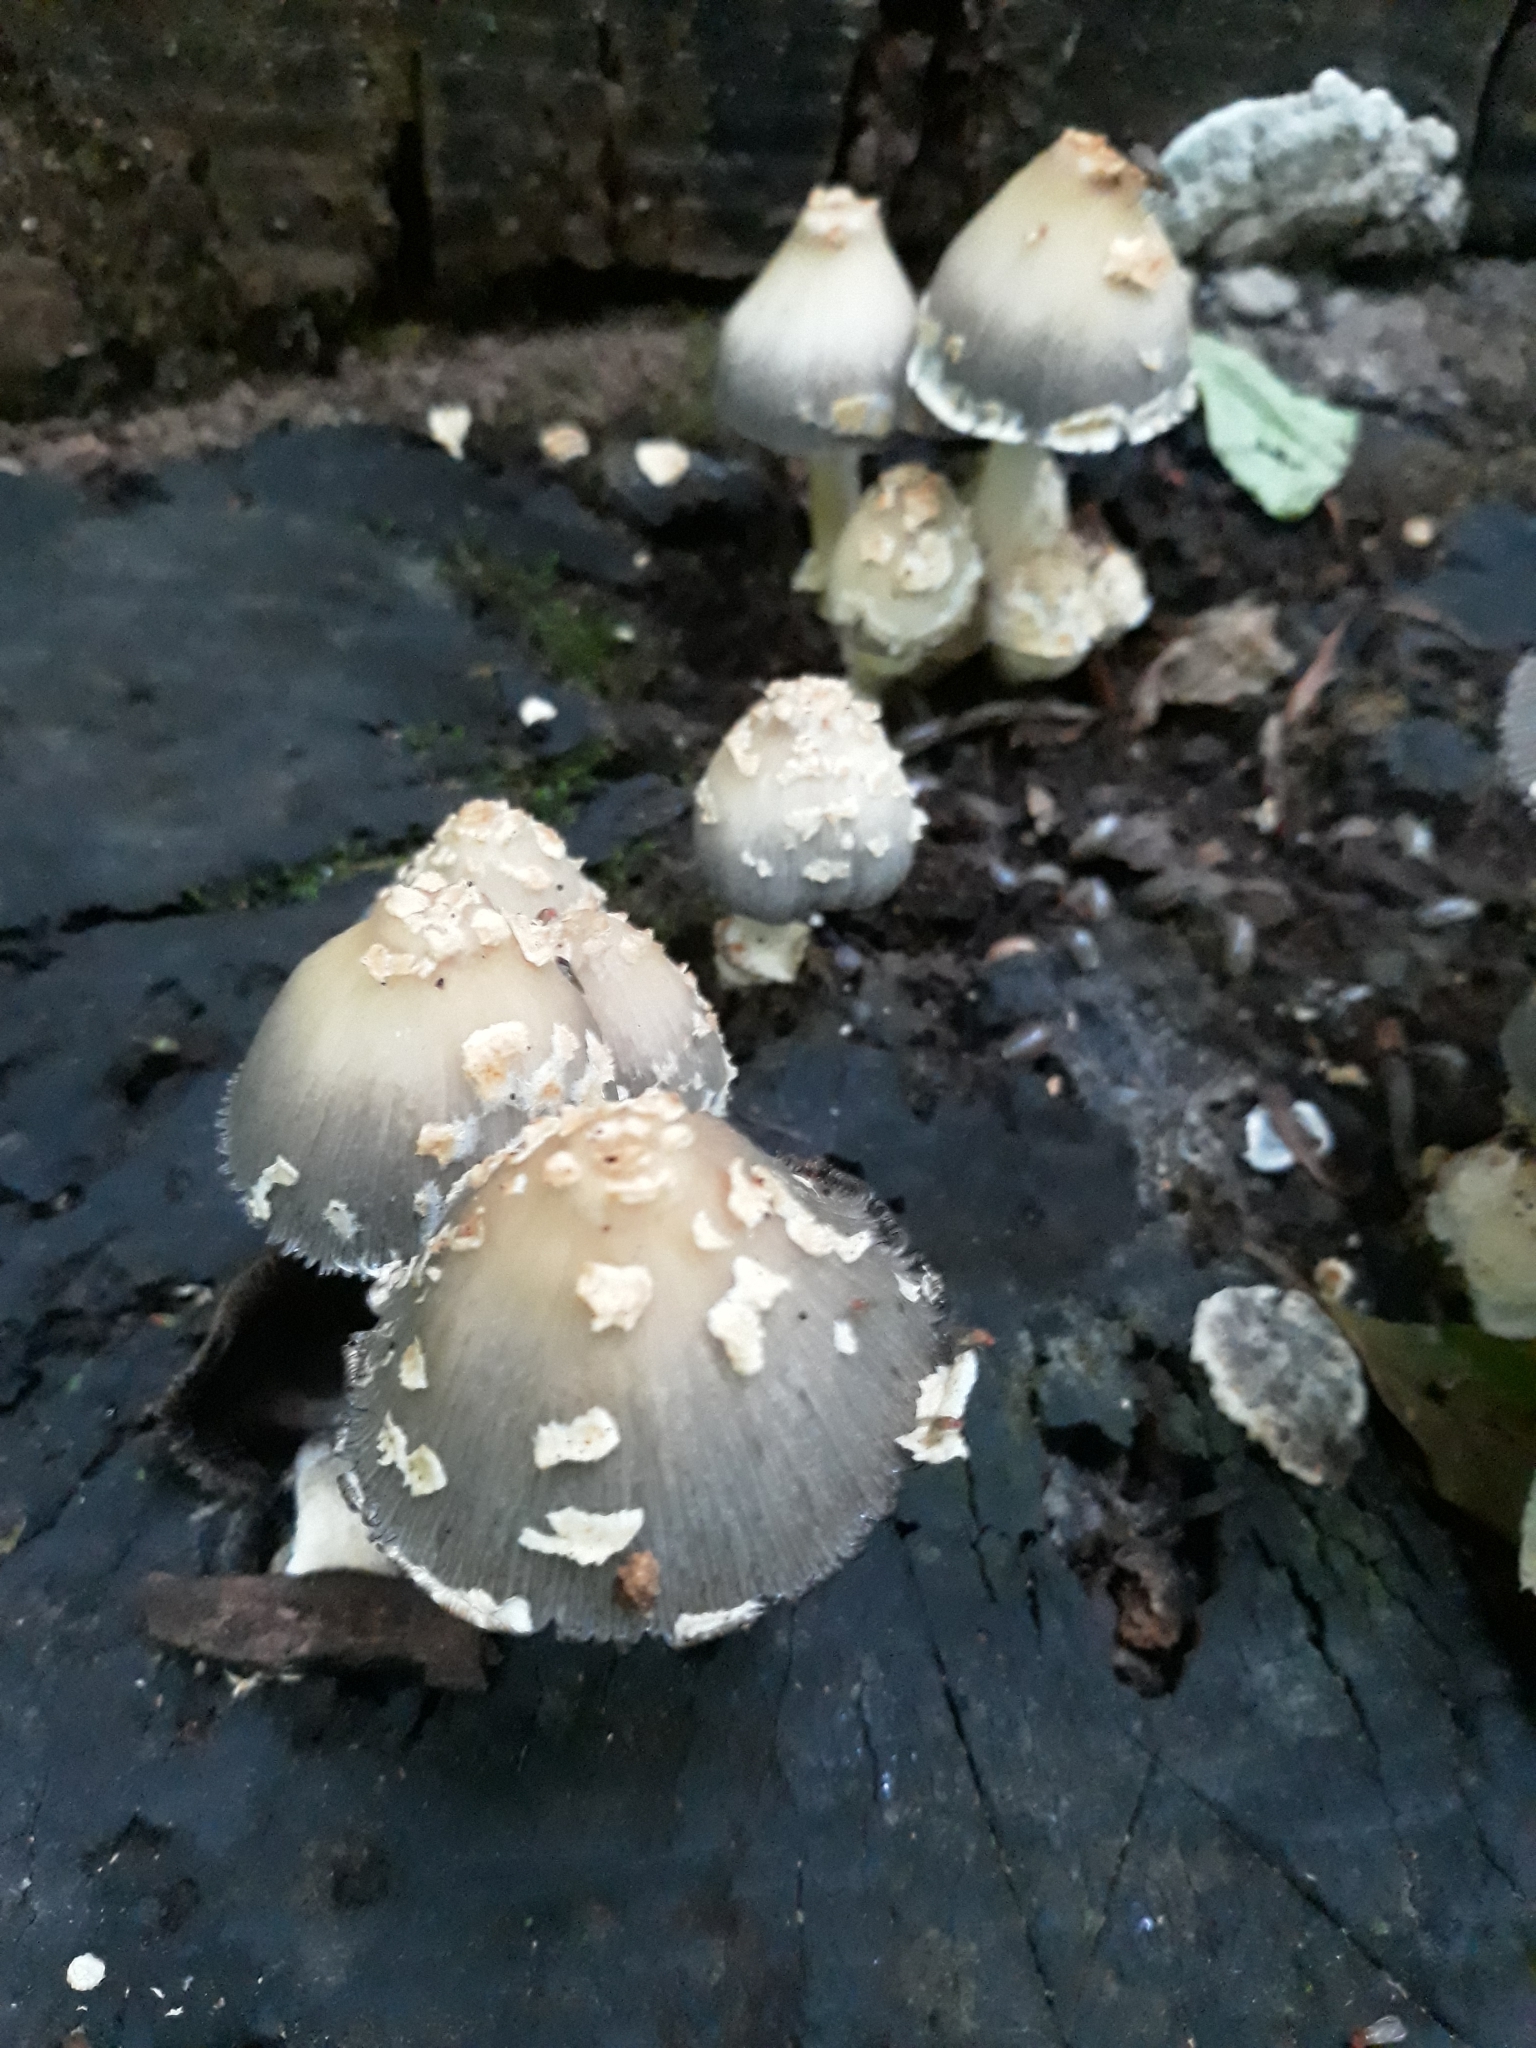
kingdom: Fungi
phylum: Basidiomycota
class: Agaricomycetes
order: Agaricales
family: Psathyrellaceae
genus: Coprinopsis
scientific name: Coprinopsis variegata
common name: Scaly ink cap
